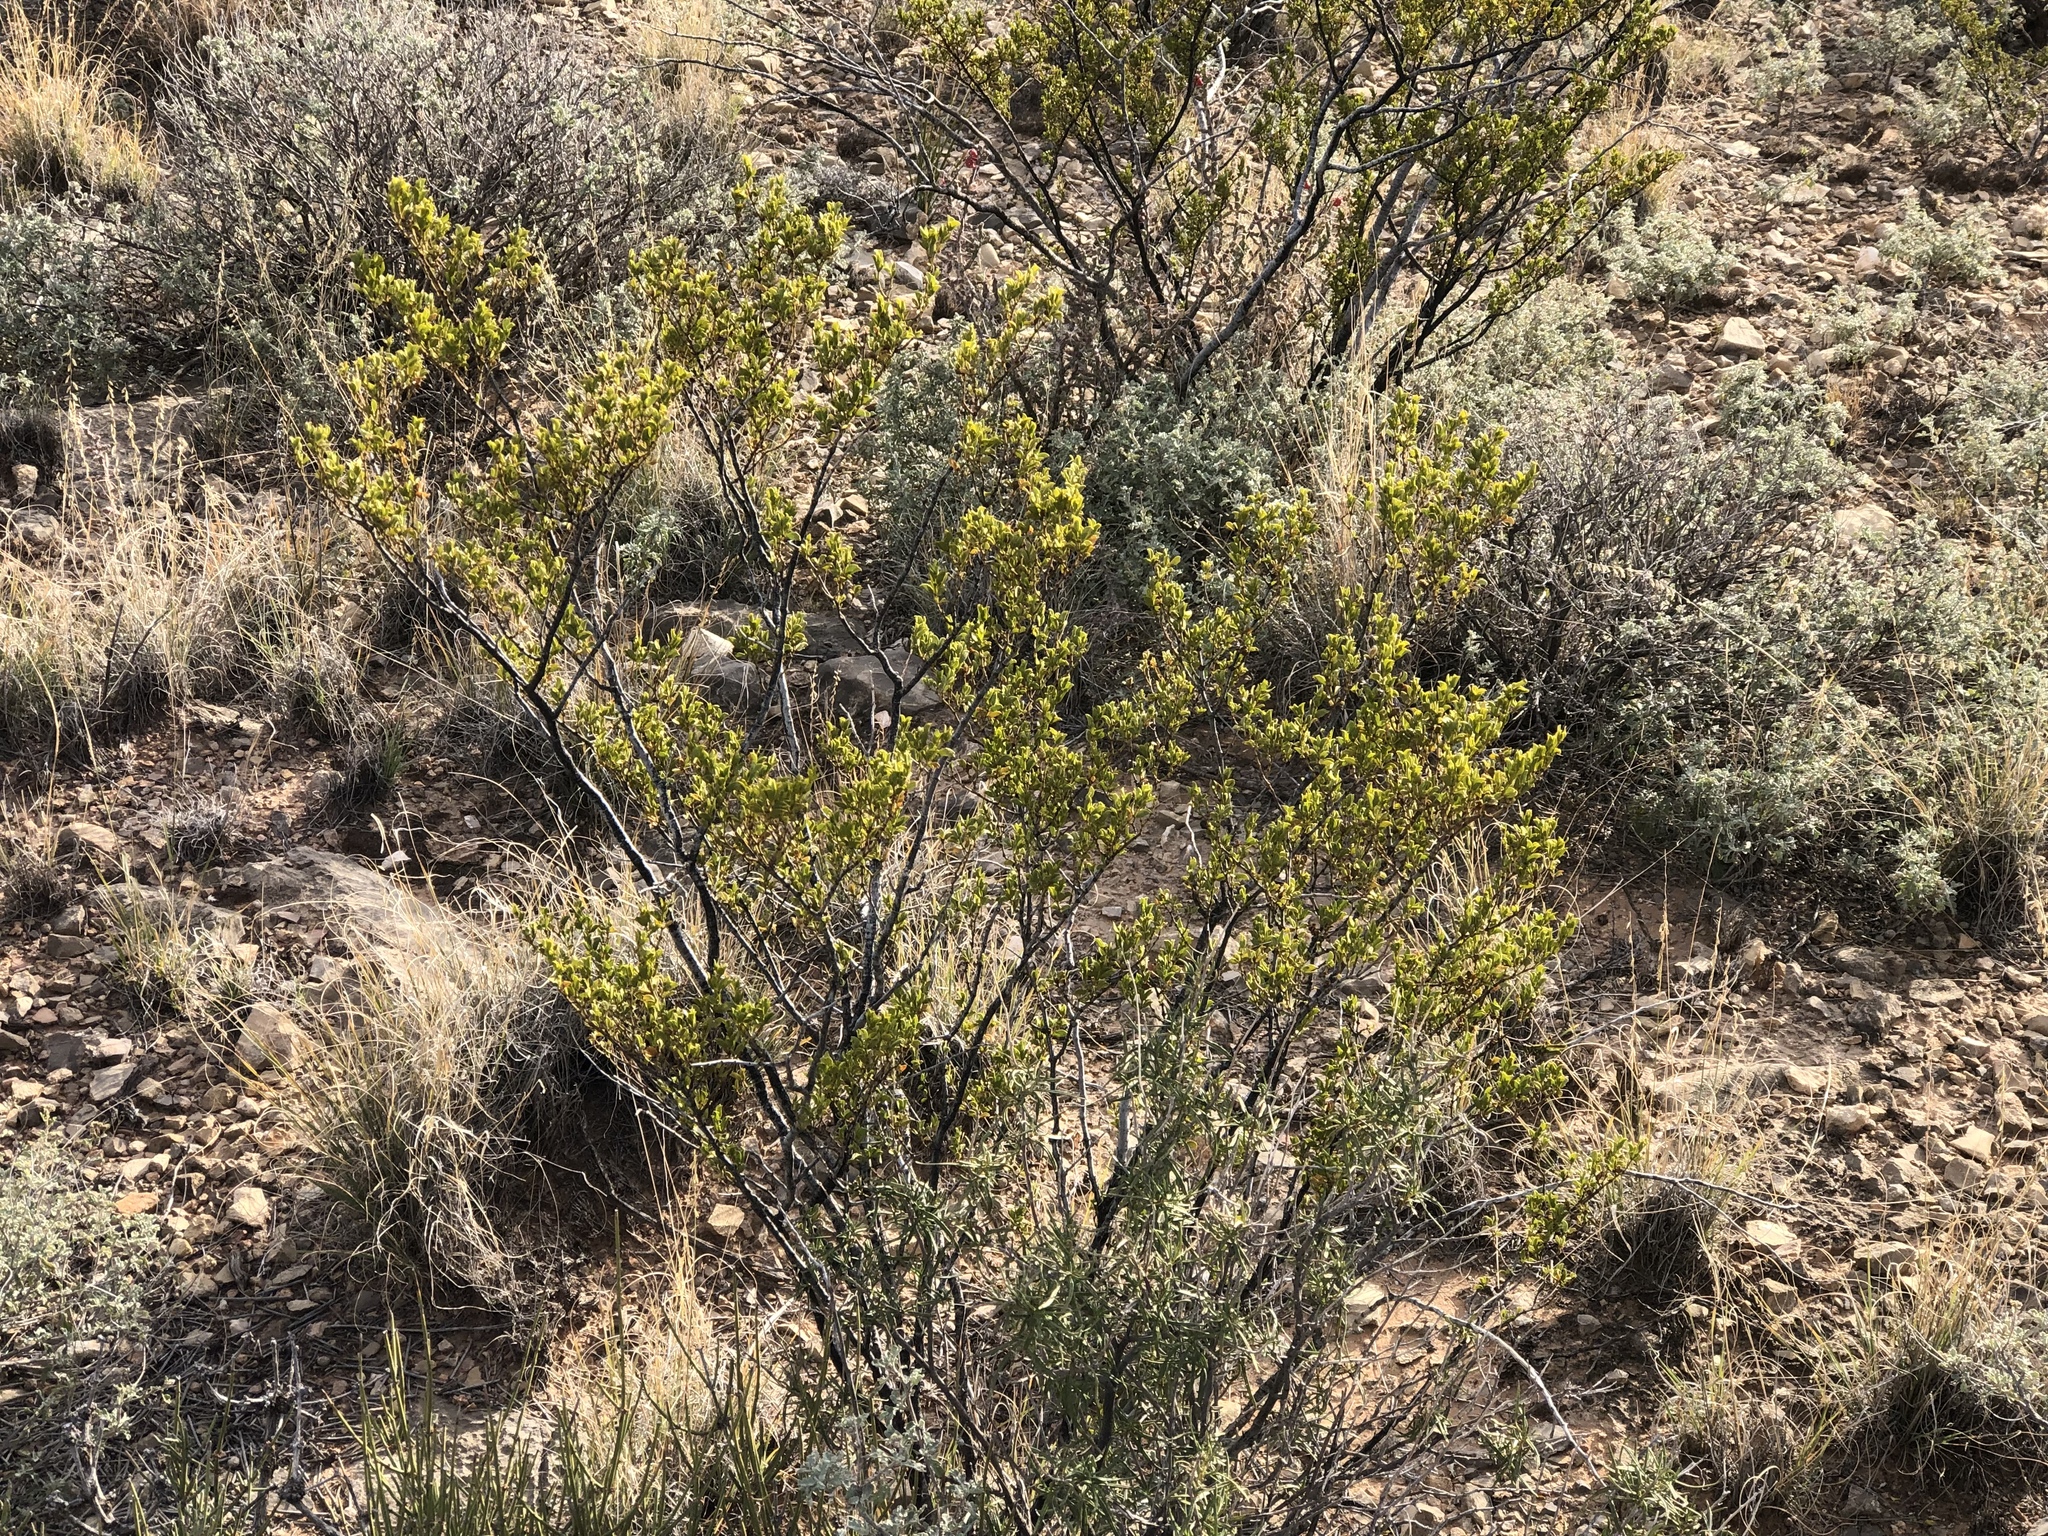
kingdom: Plantae
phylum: Tracheophyta
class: Magnoliopsida
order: Zygophyllales
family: Zygophyllaceae
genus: Larrea
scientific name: Larrea tridentata
